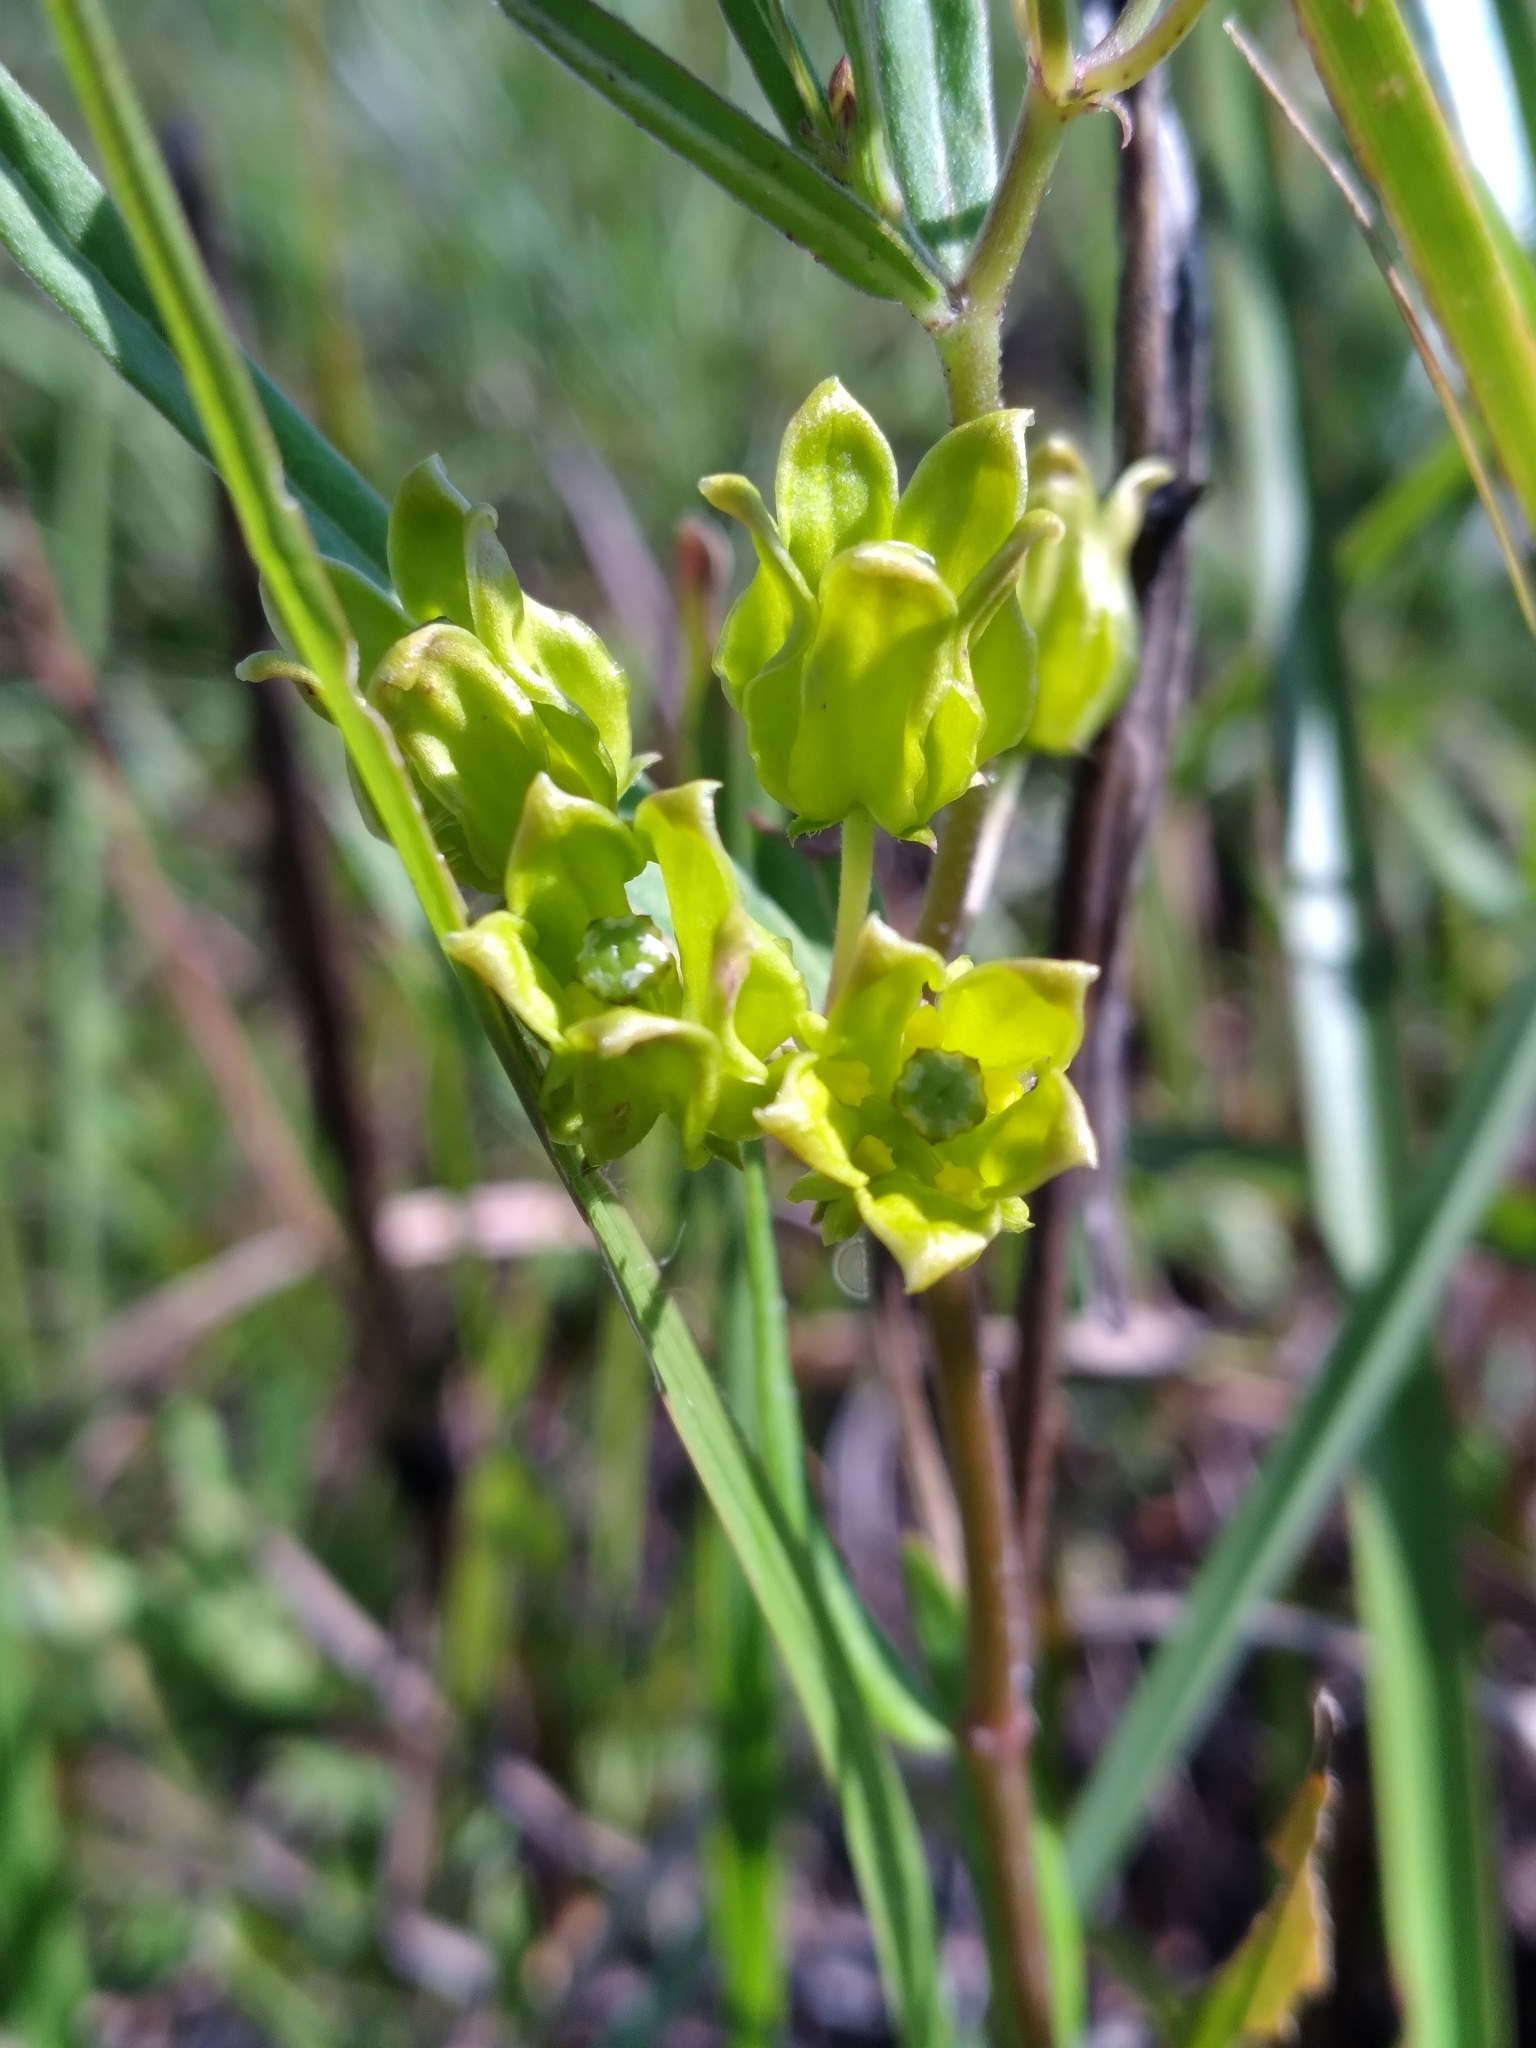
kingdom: Plantae
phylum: Tracheophyta
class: Magnoliopsida
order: Gentianales
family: Apocynaceae
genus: Asclepias
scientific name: Asclepias pedicellata
